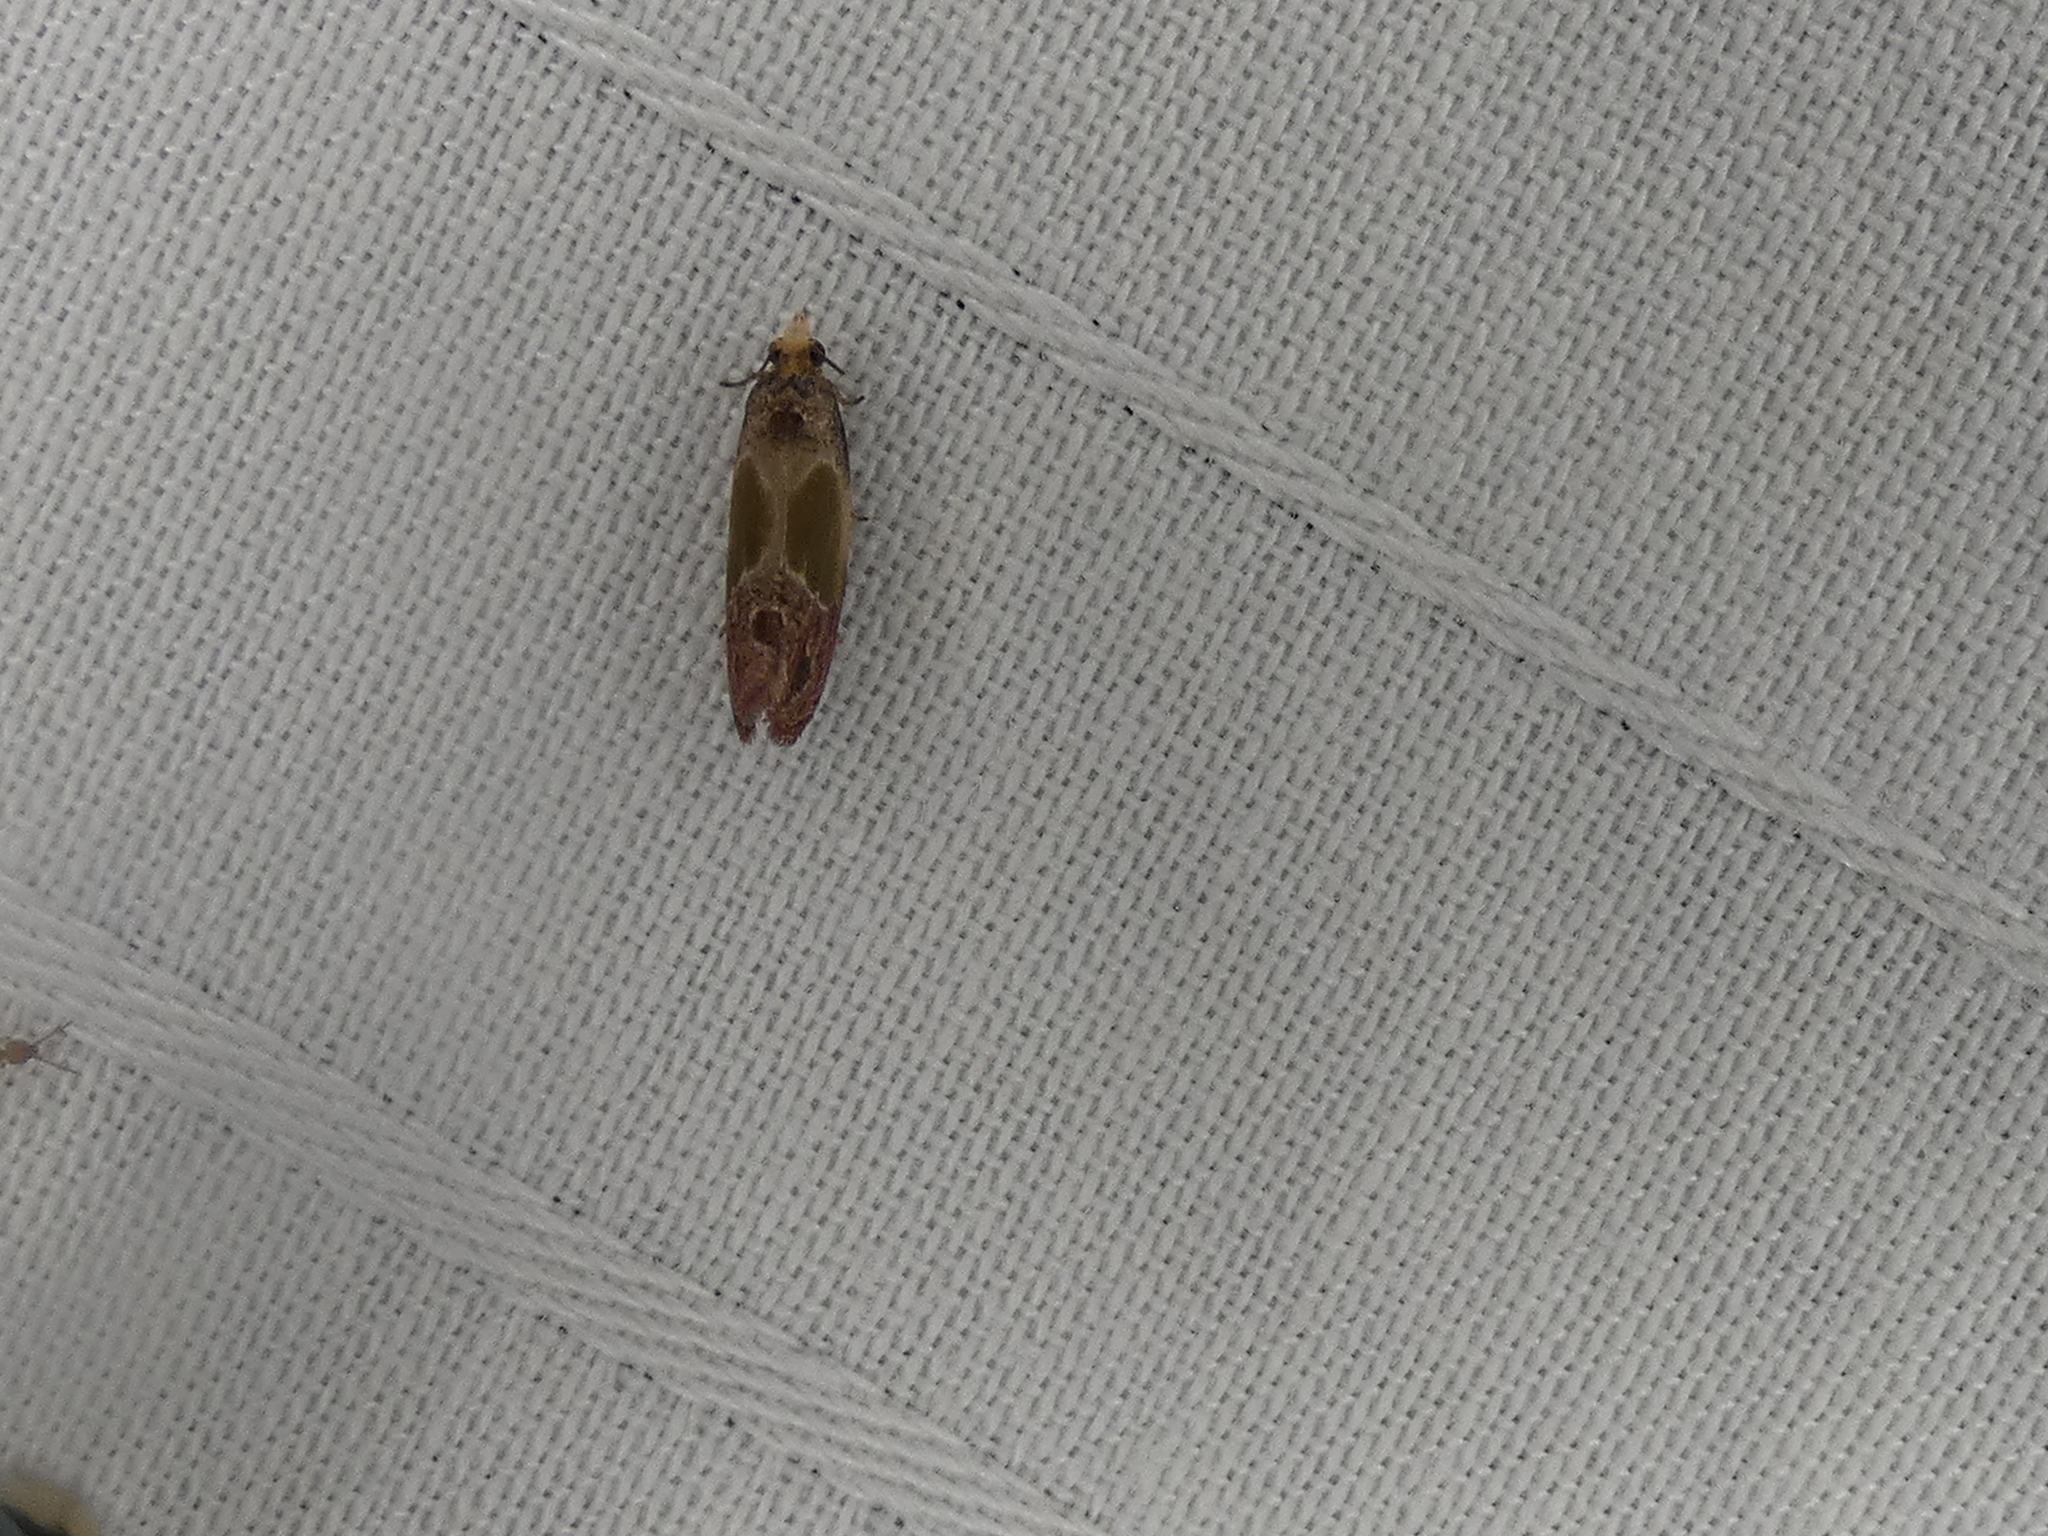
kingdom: Animalia
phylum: Arthropoda
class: Insecta
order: Lepidoptera
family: Tortricidae
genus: Eumarozia
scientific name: Eumarozia malachitana
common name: Sculptured moth
